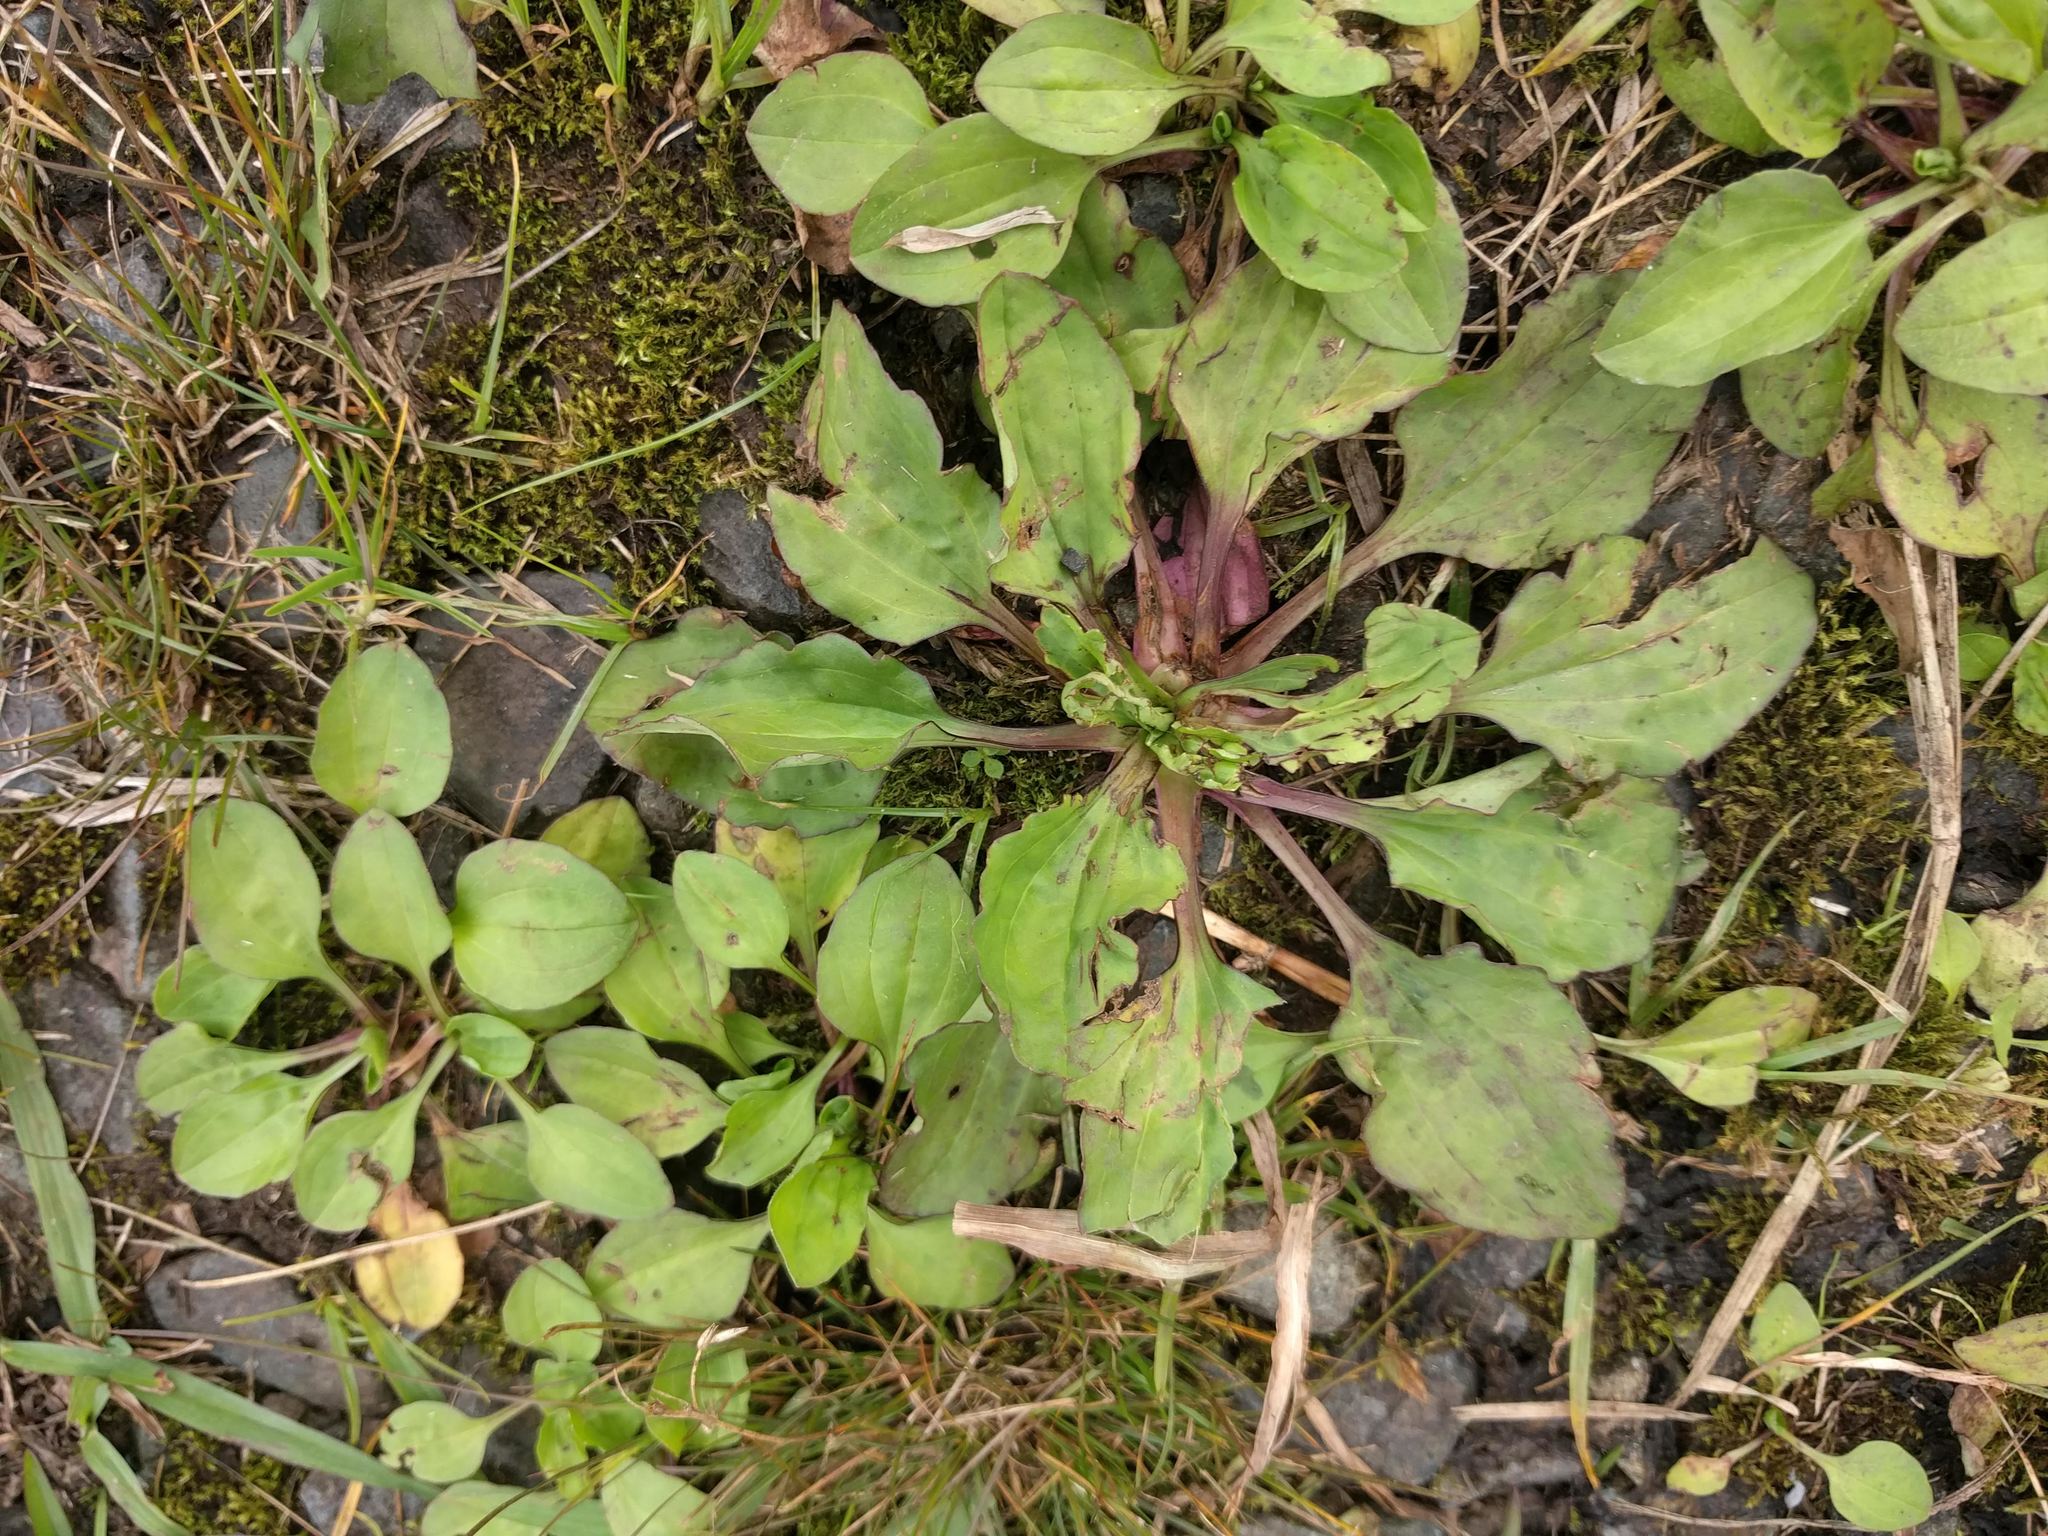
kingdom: Plantae
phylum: Tracheophyta
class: Magnoliopsida
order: Lamiales
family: Plantaginaceae
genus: Plantago
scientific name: Plantago rugelii
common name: American plantain
